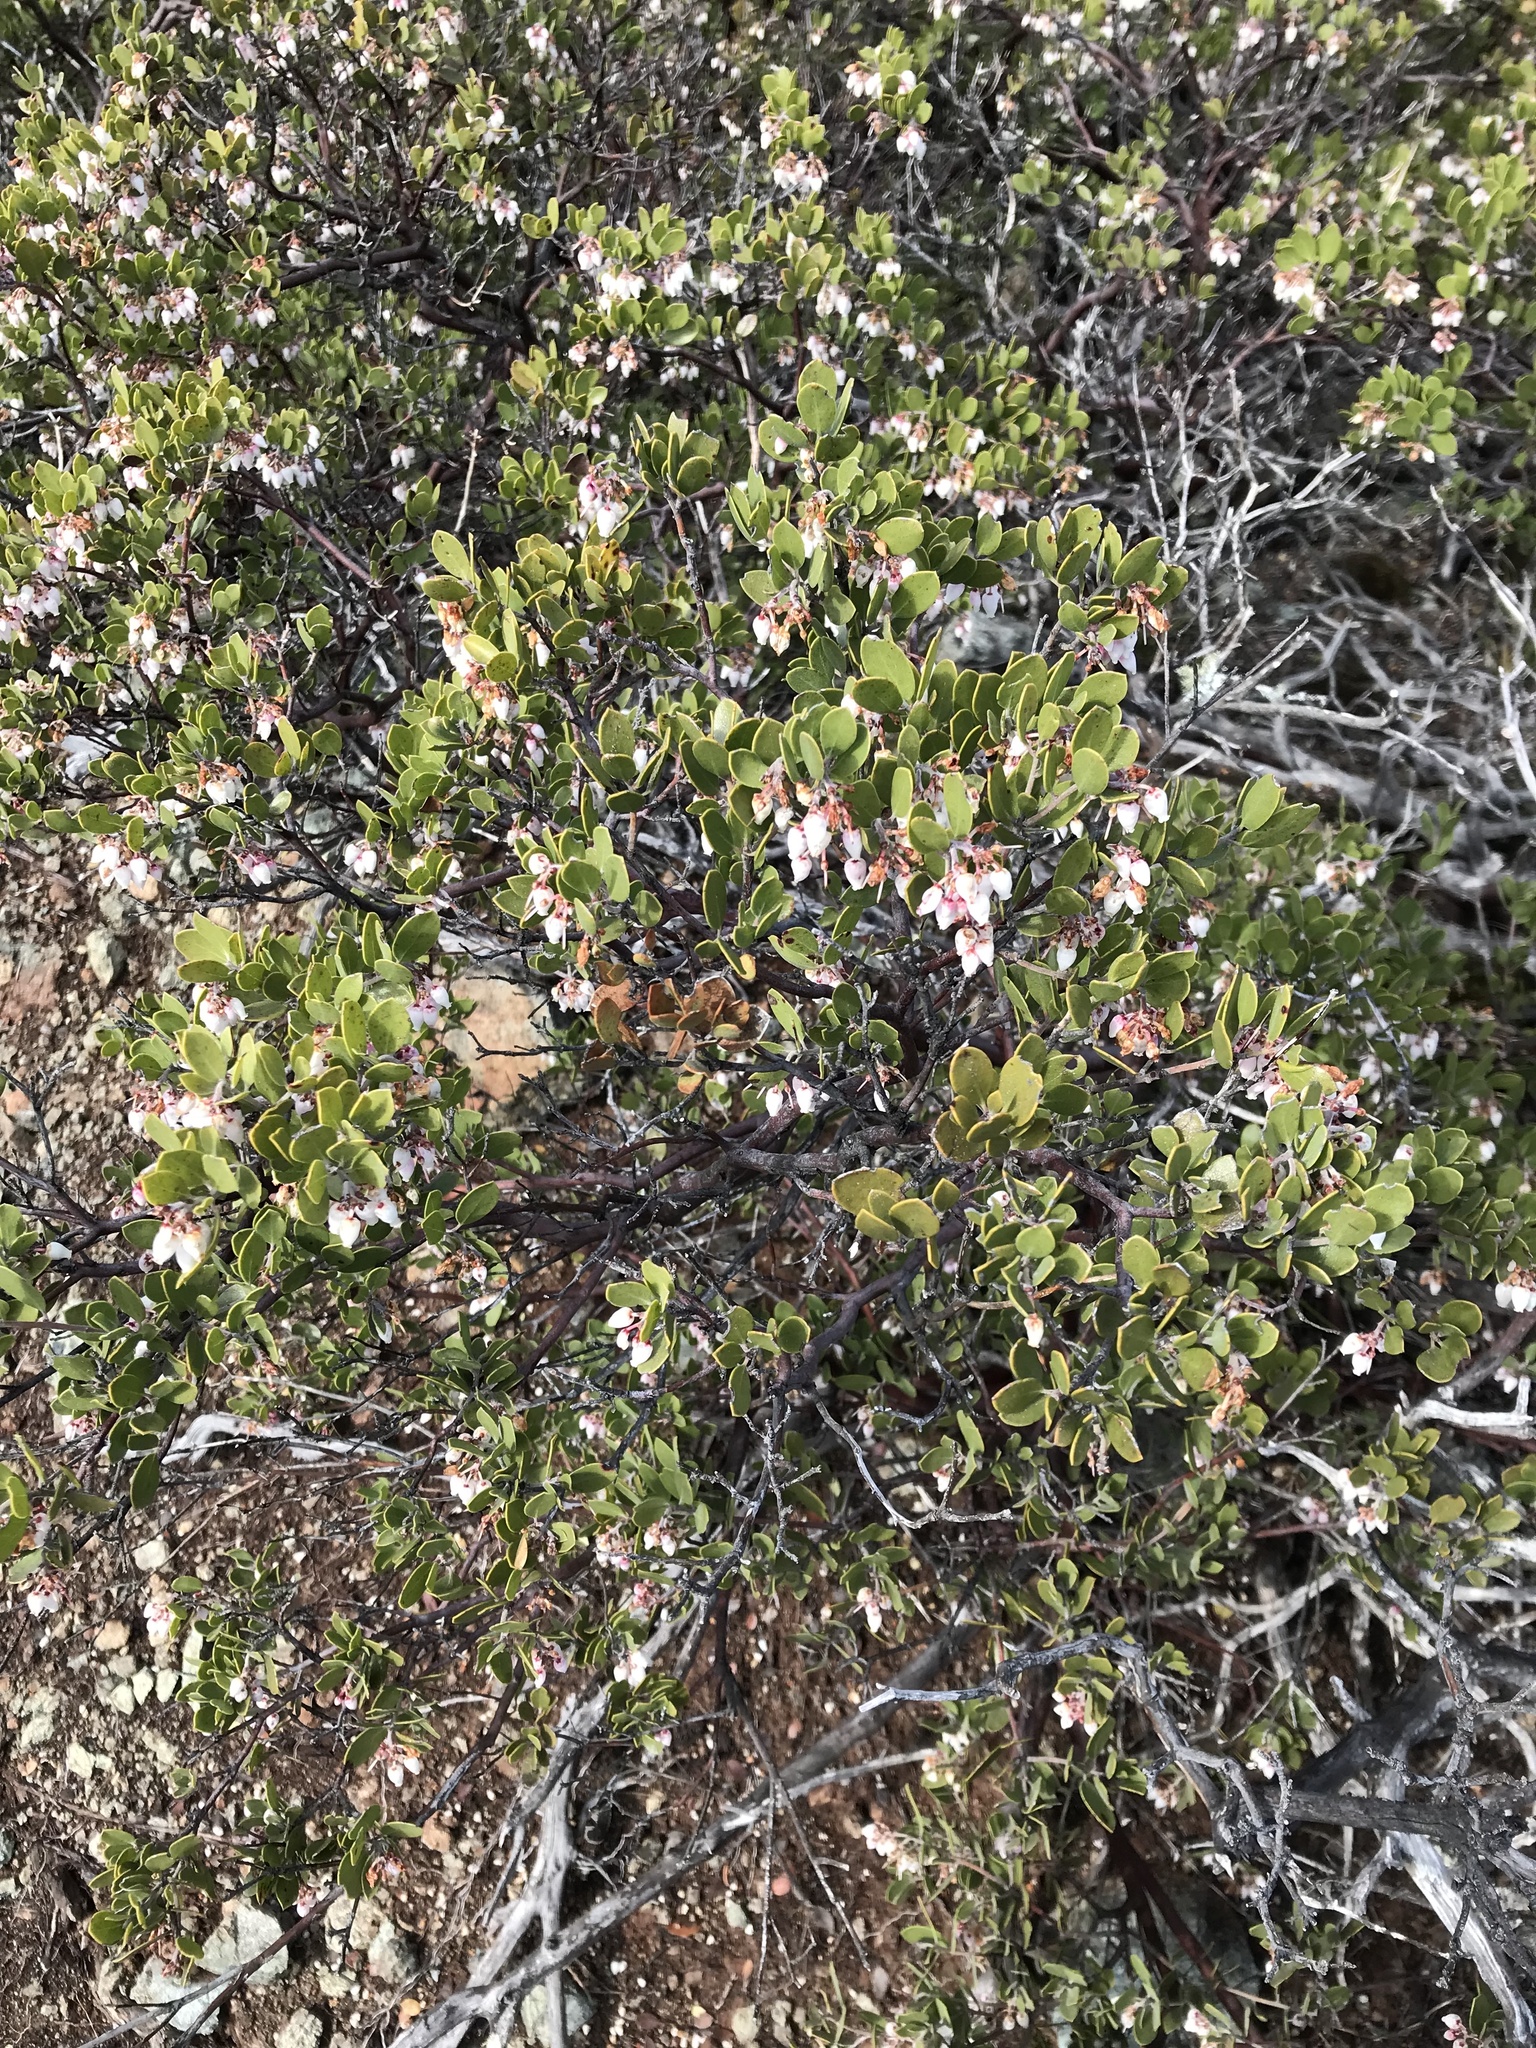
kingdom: Plantae
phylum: Tracheophyta
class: Magnoliopsida
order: Ericales
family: Ericaceae
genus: Arctostaphylos
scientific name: Arctostaphylos montana
